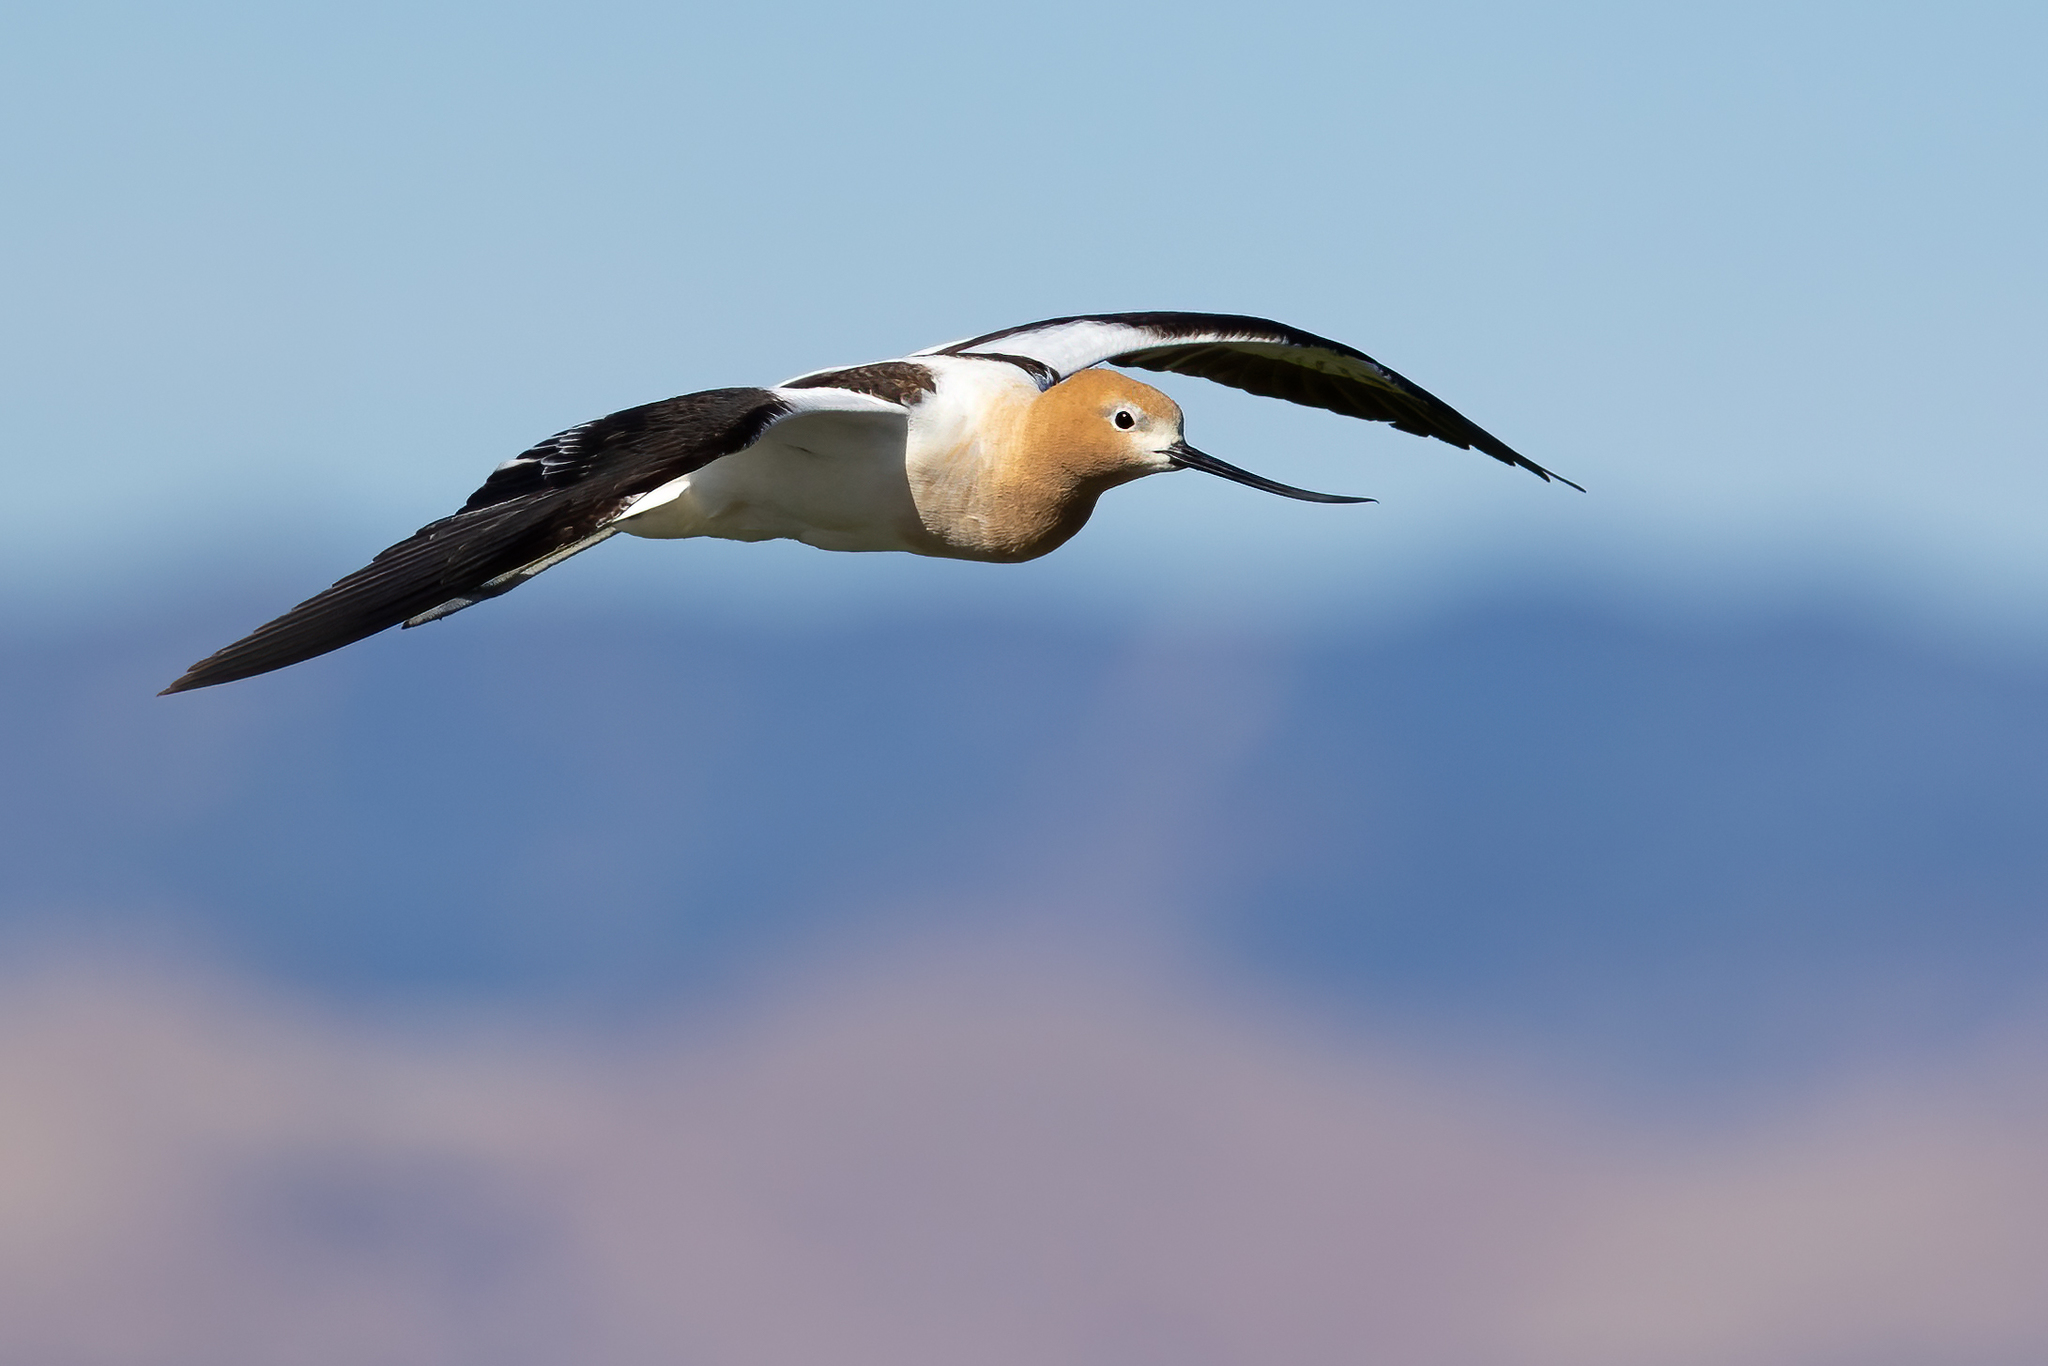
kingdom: Animalia
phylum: Chordata
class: Aves
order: Charadriiformes
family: Recurvirostridae
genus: Recurvirostra
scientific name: Recurvirostra americana
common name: American avocet
